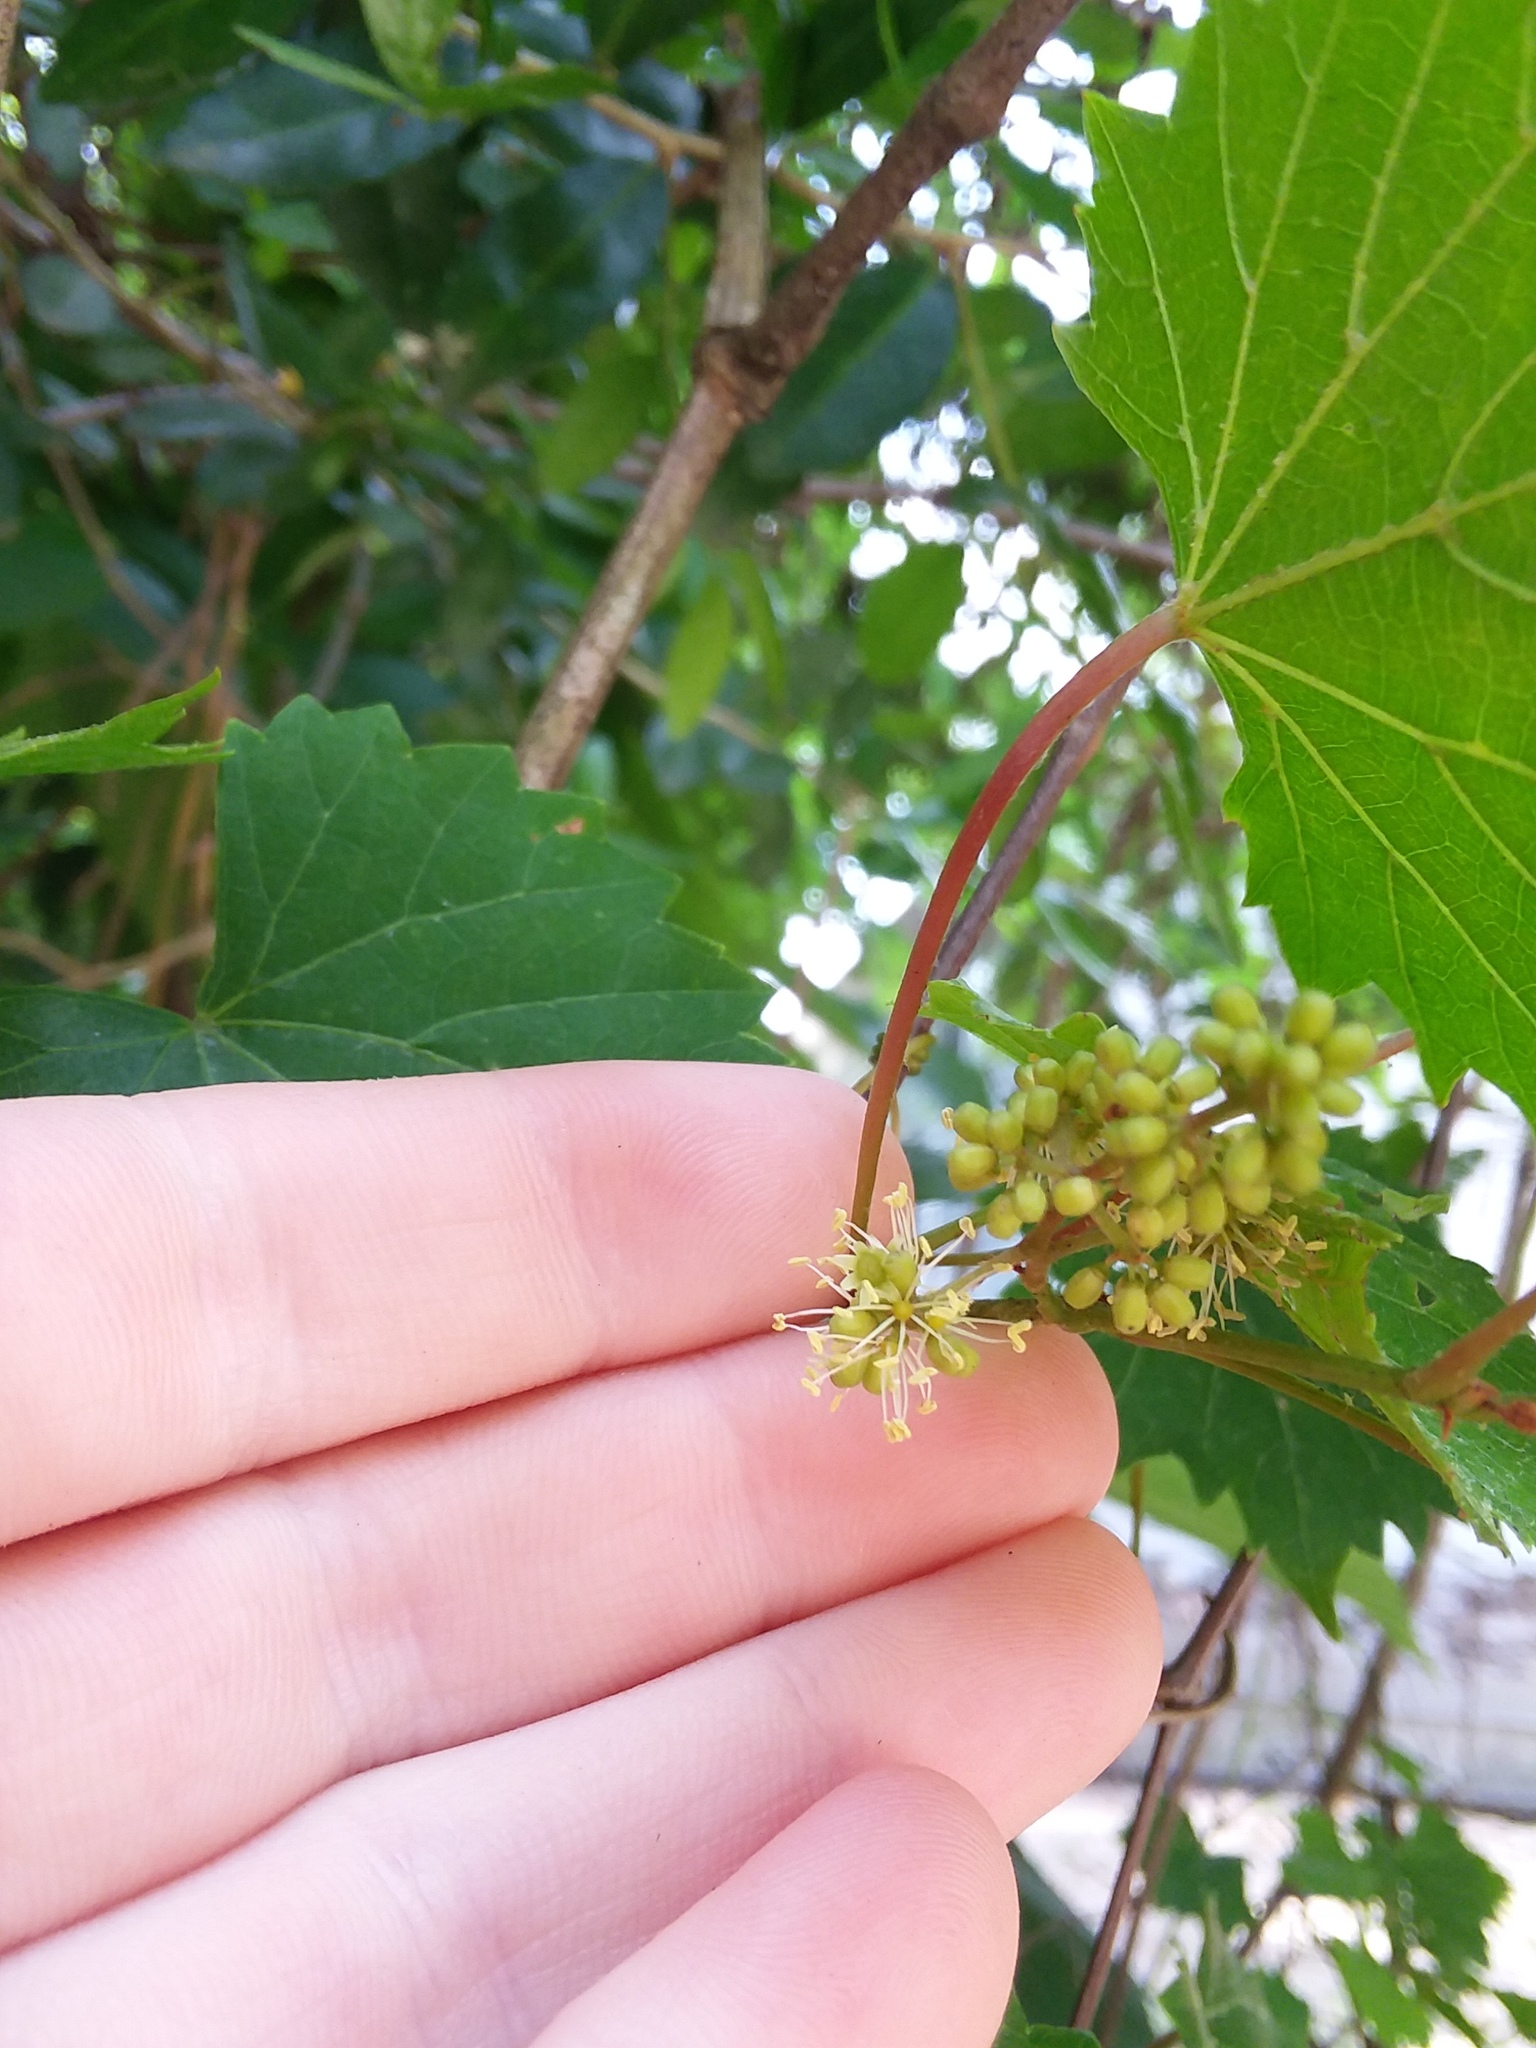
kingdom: Plantae
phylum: Tracheophyta
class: Magnoliopsida
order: Vitales
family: Vitaceae
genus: Vitis
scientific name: Vitis rotundifolia
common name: Muscadine grape
